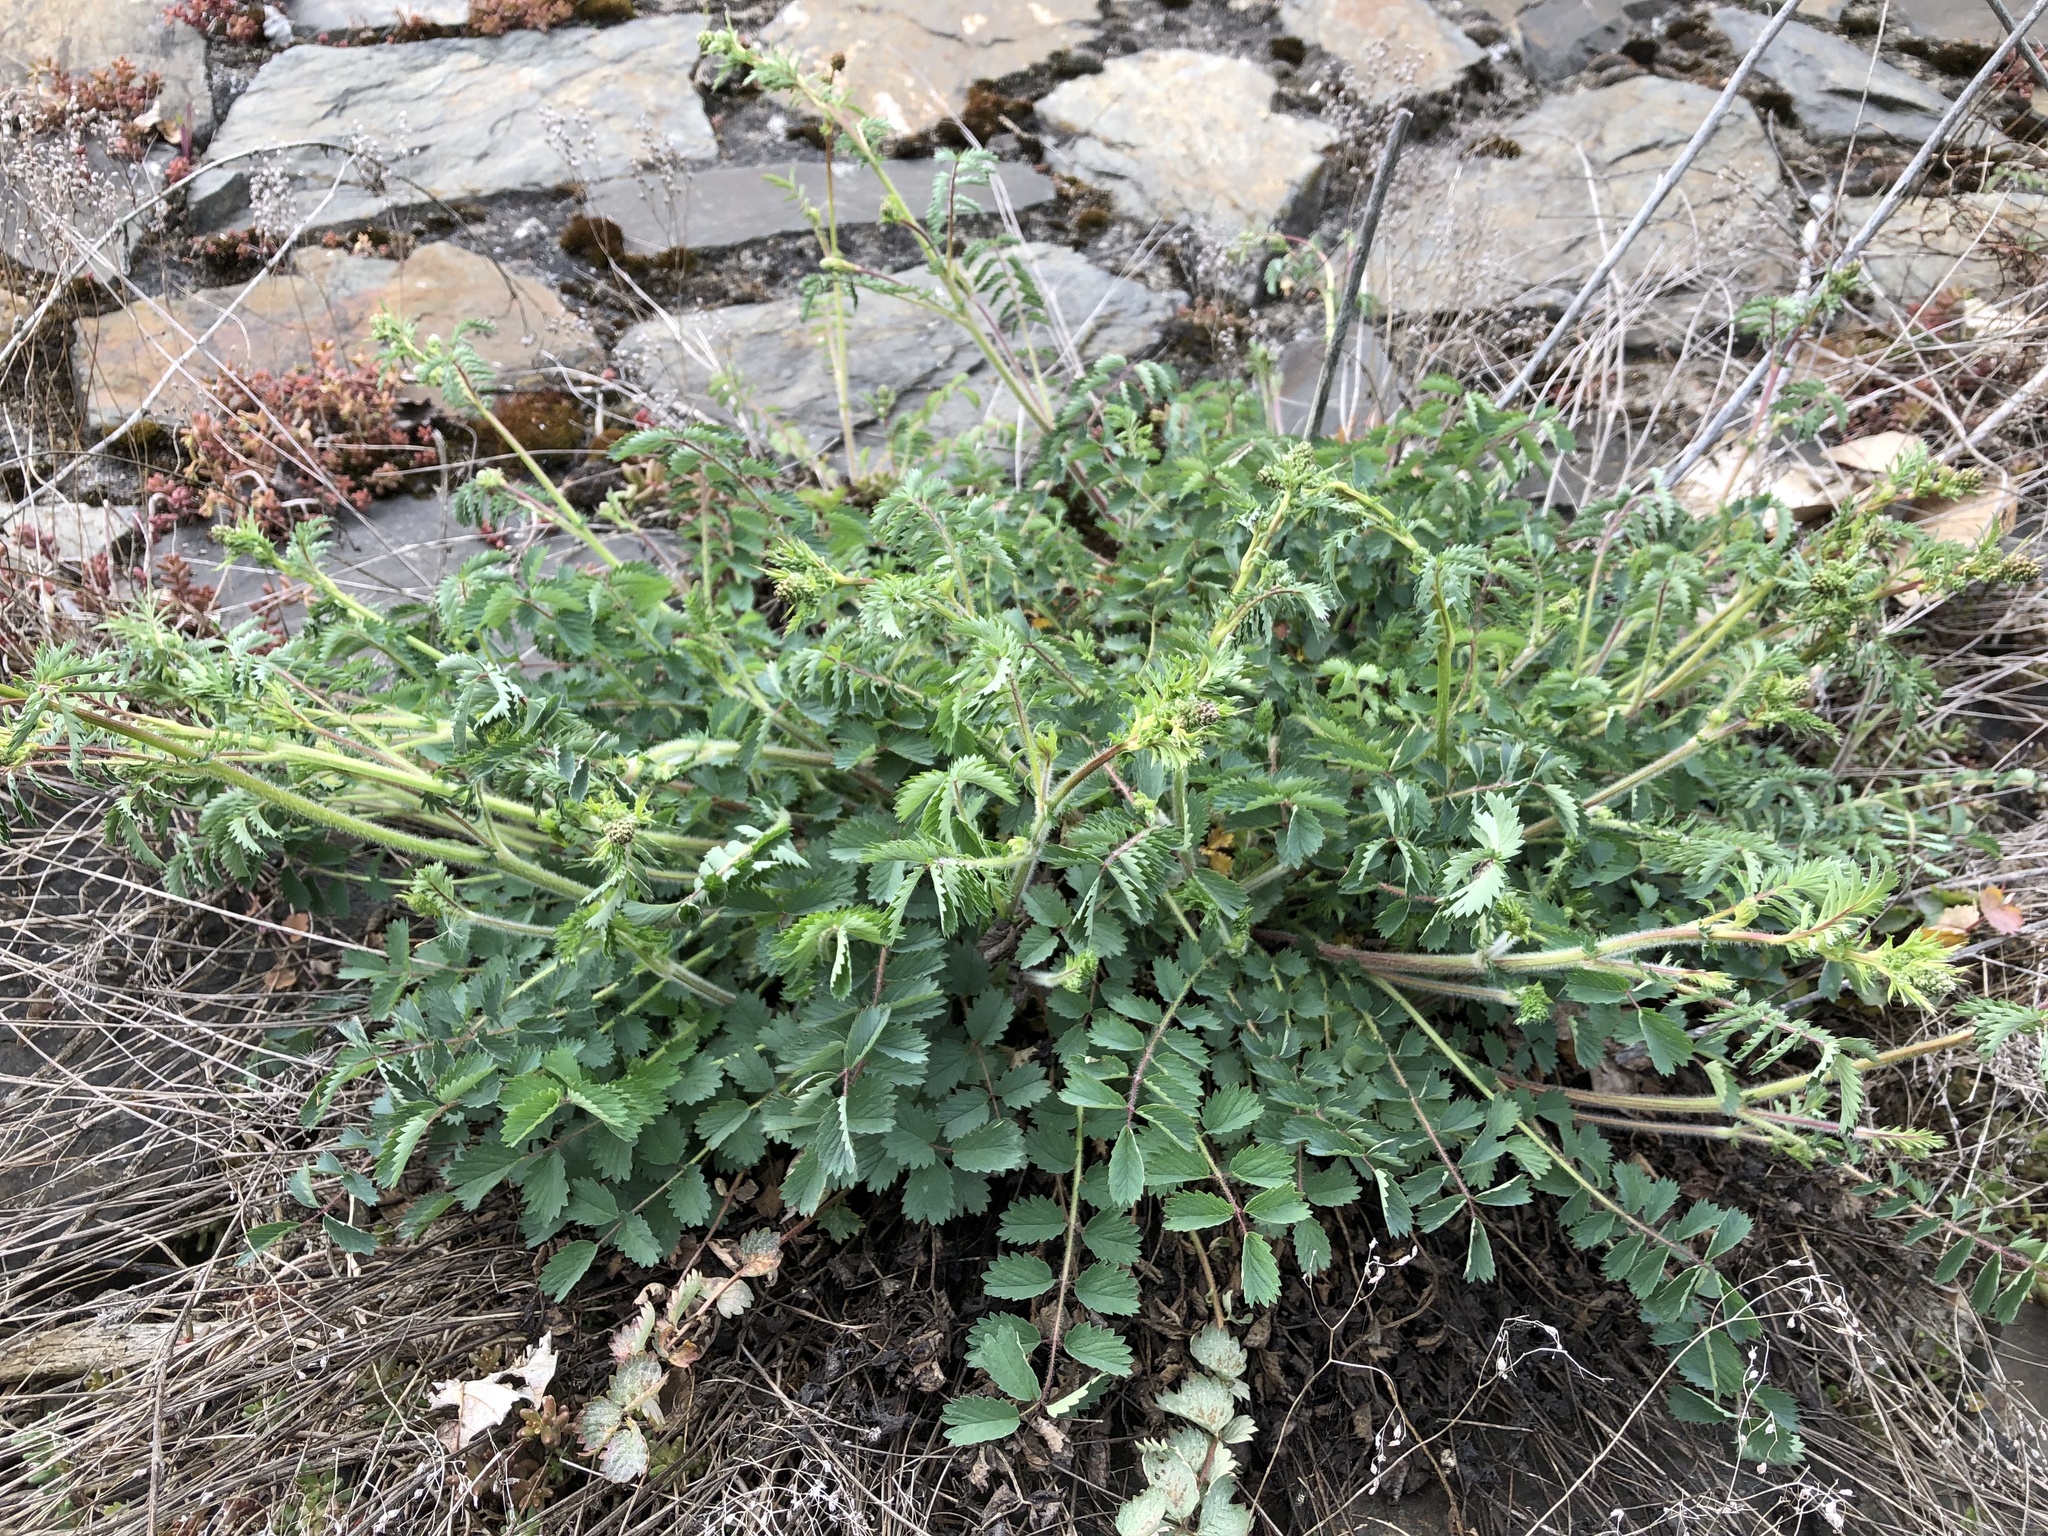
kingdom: Plantae
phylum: Tracheophyta
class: Magnoliopsida
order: Rosales
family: Rosaceae
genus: Poterium
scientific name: Poterium sanguisorba
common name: Salad burnet
